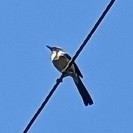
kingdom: Animalia
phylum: Chordata
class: Aves
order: Passeriformes
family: Corvidae
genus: Aphelocoma
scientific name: Aphelocoma californica
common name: California scrub-jay
